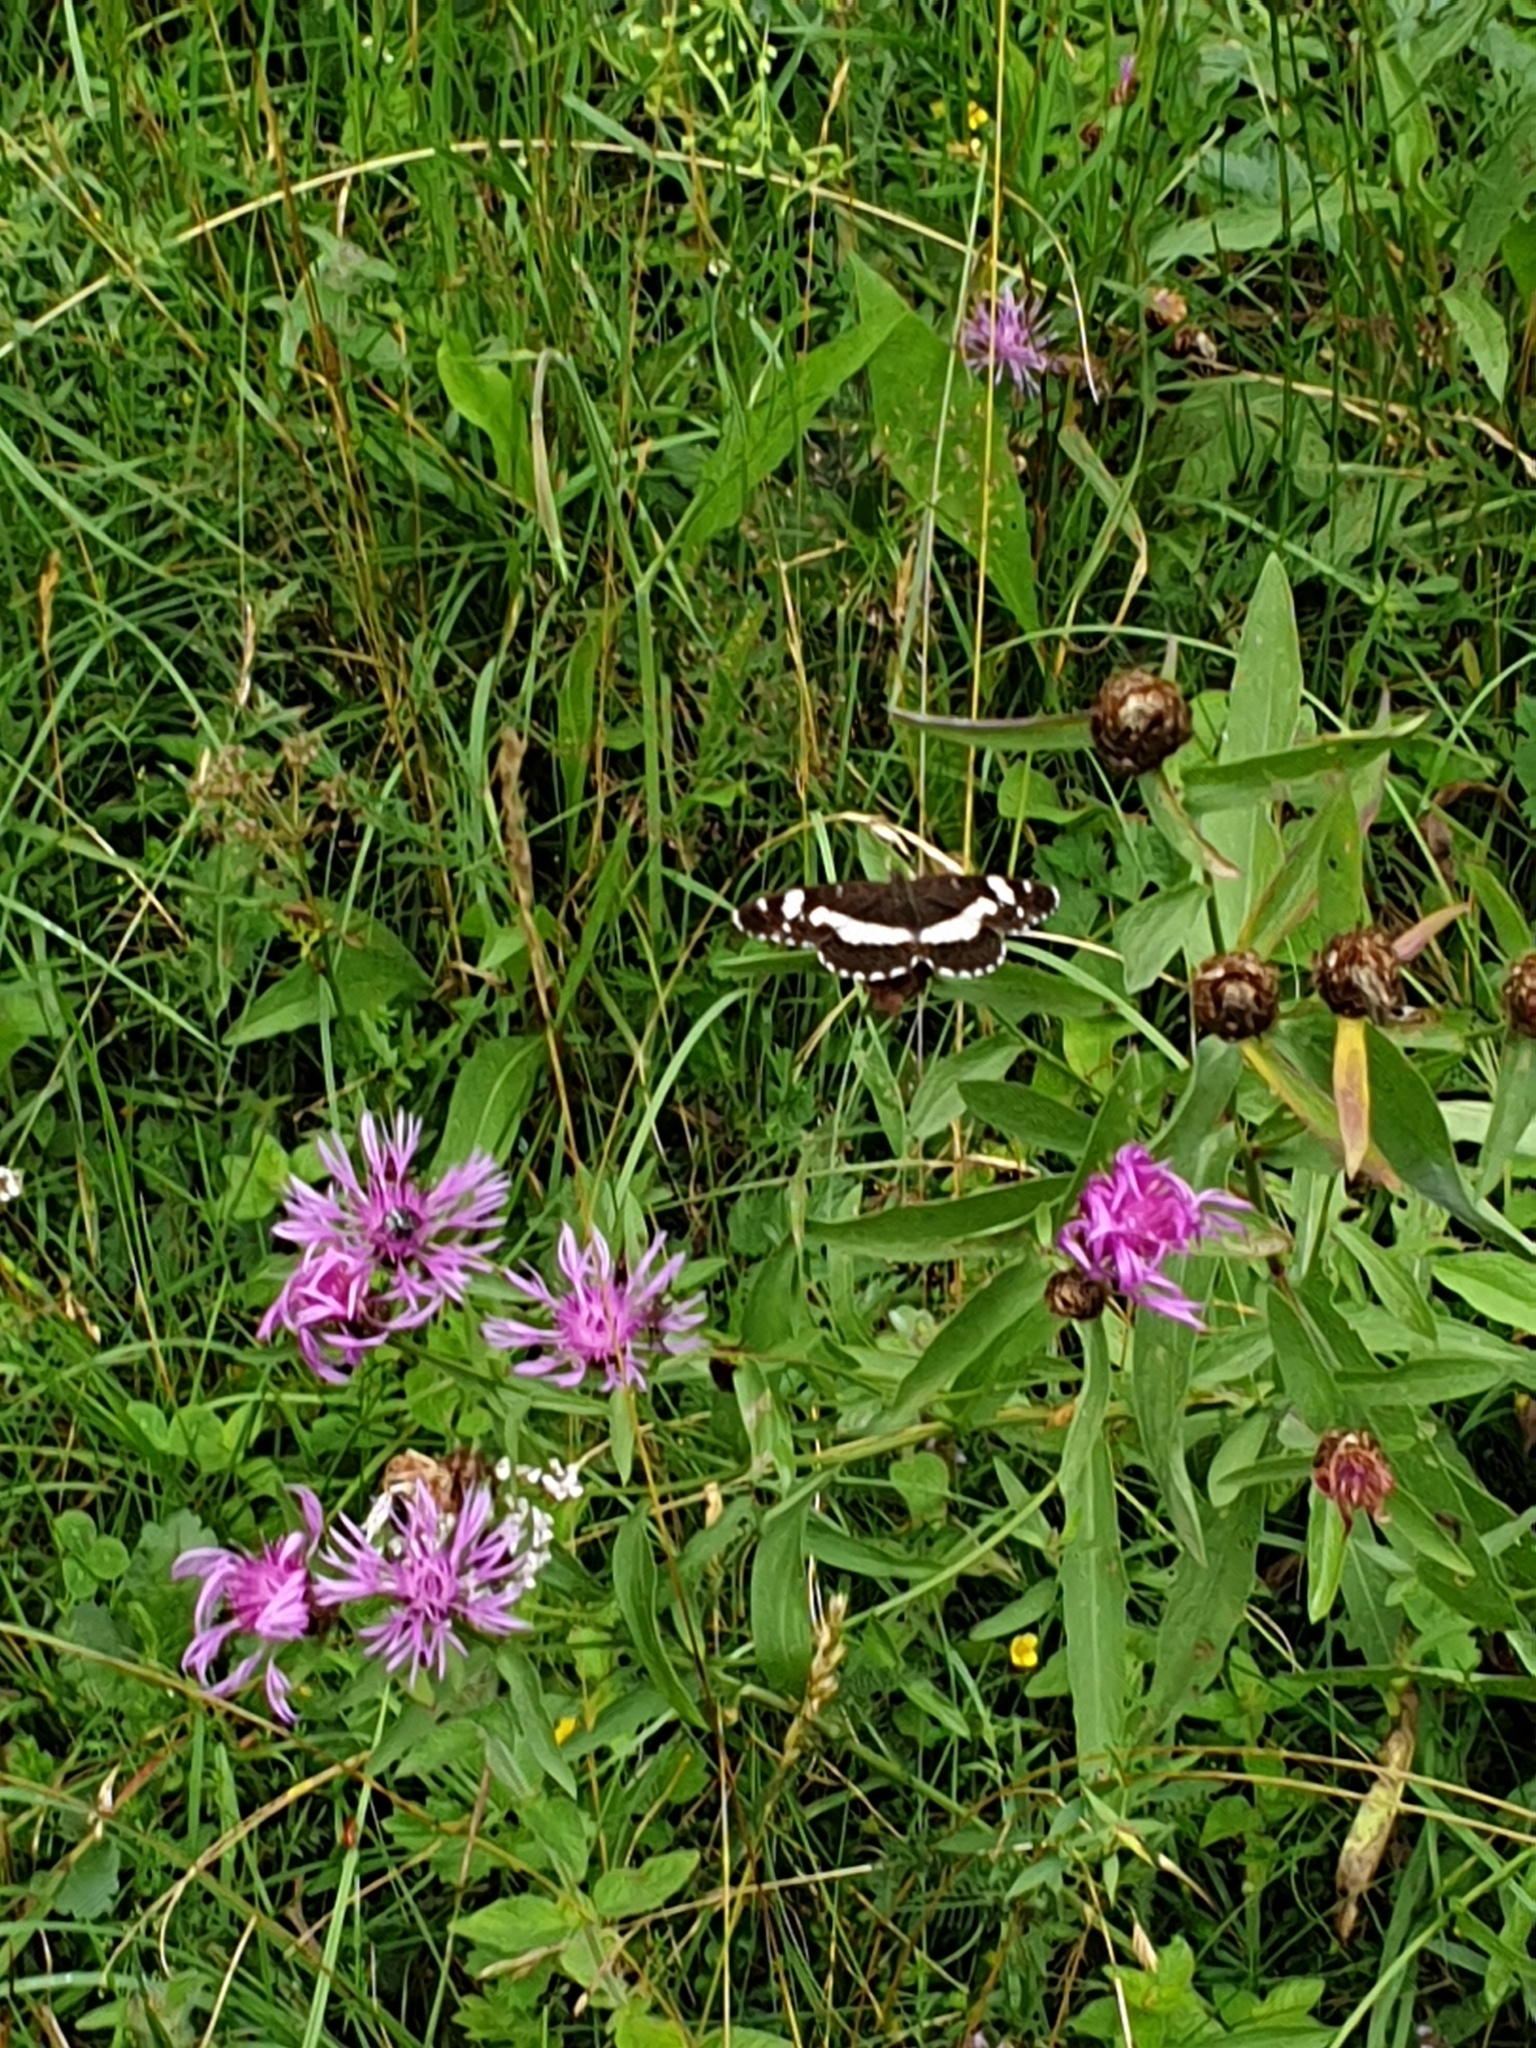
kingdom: Animalia
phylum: Arthropoda
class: Insecta
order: Lepidoptera
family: Nymphalidae
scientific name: Nymphalidae
